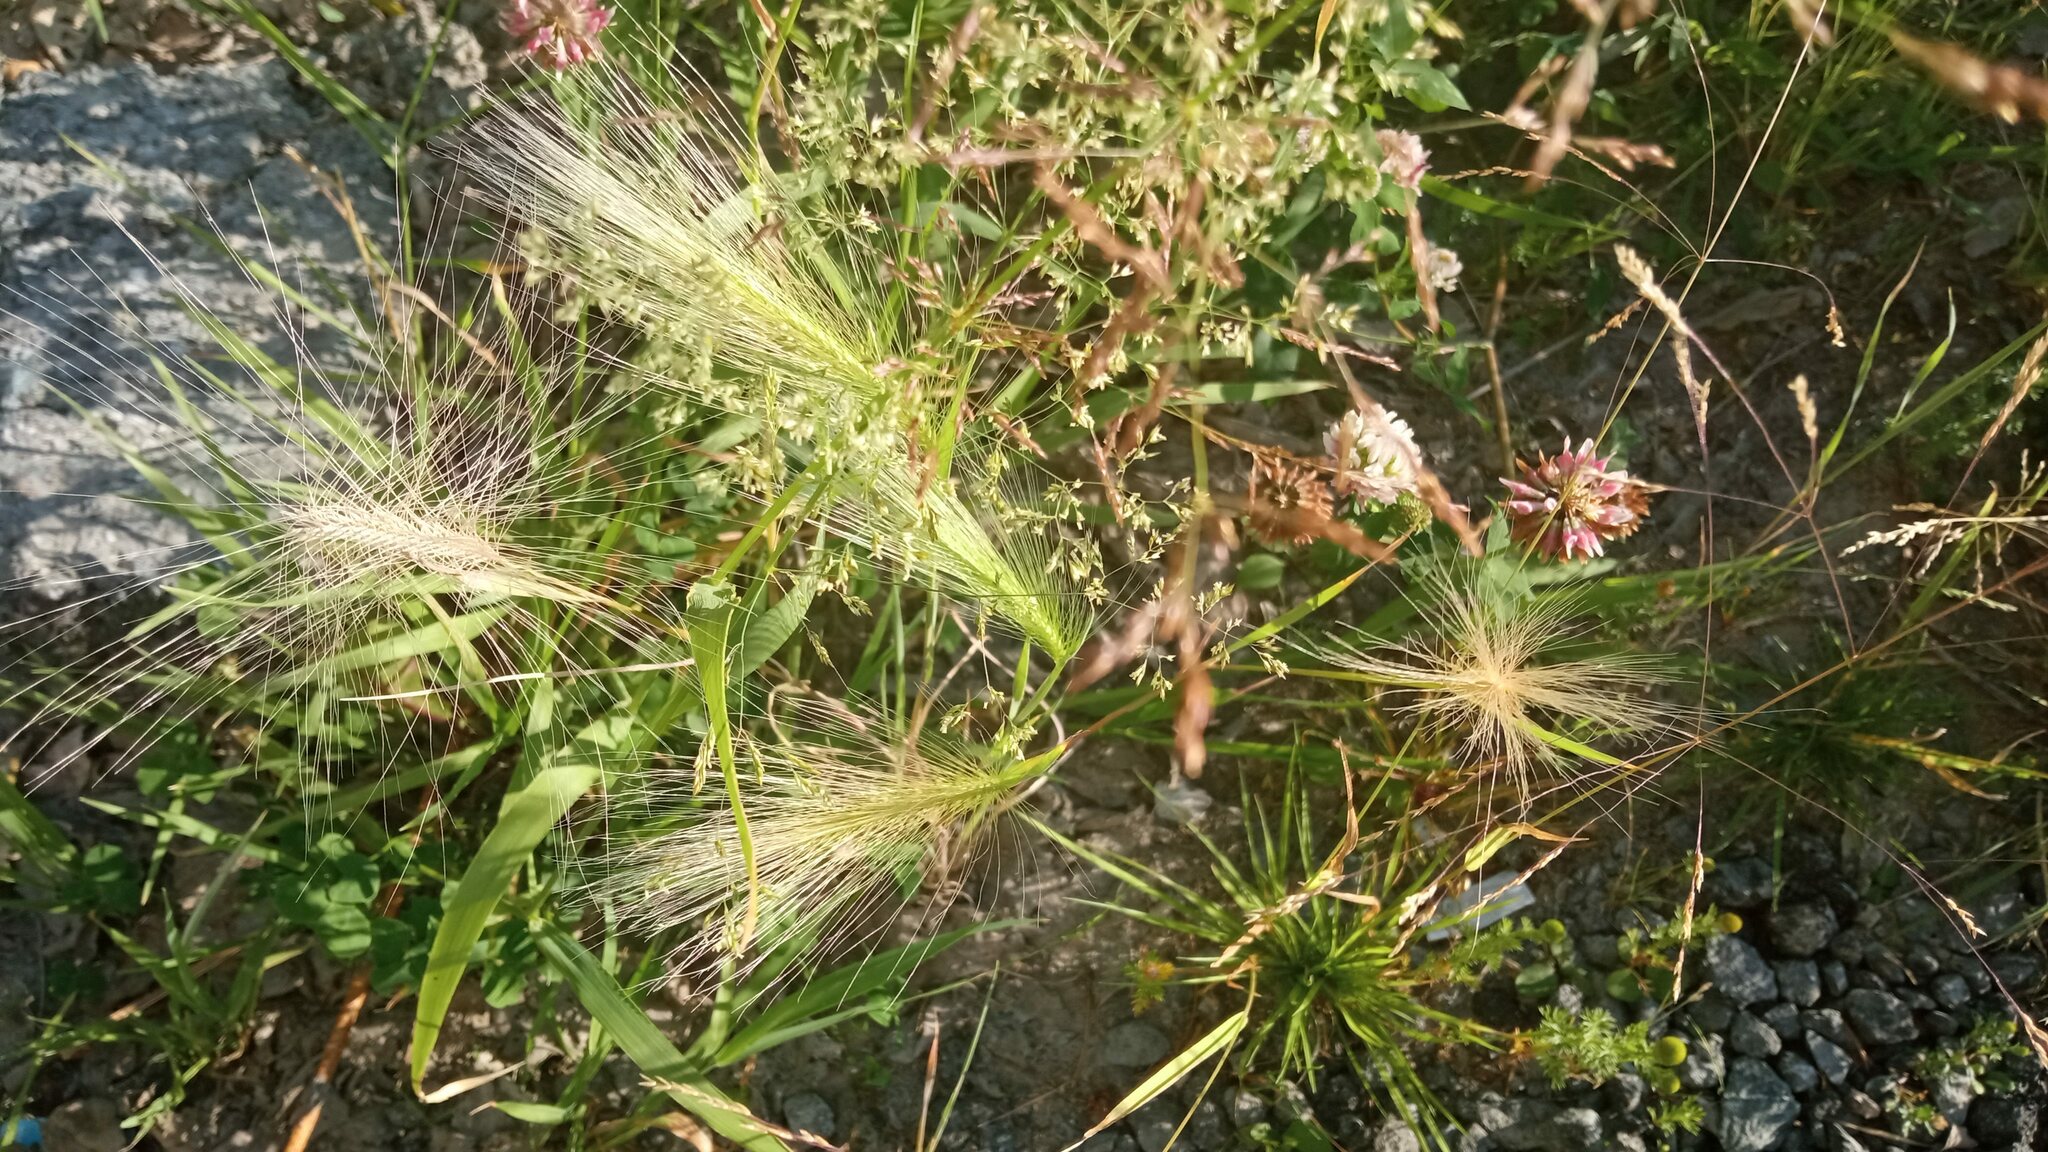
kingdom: Plantae
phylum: Tracheophyta
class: Liliopsida
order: Poales
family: Poaceae
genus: Hordeum
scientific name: Hordeum jubatum
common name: Foxtail barley
